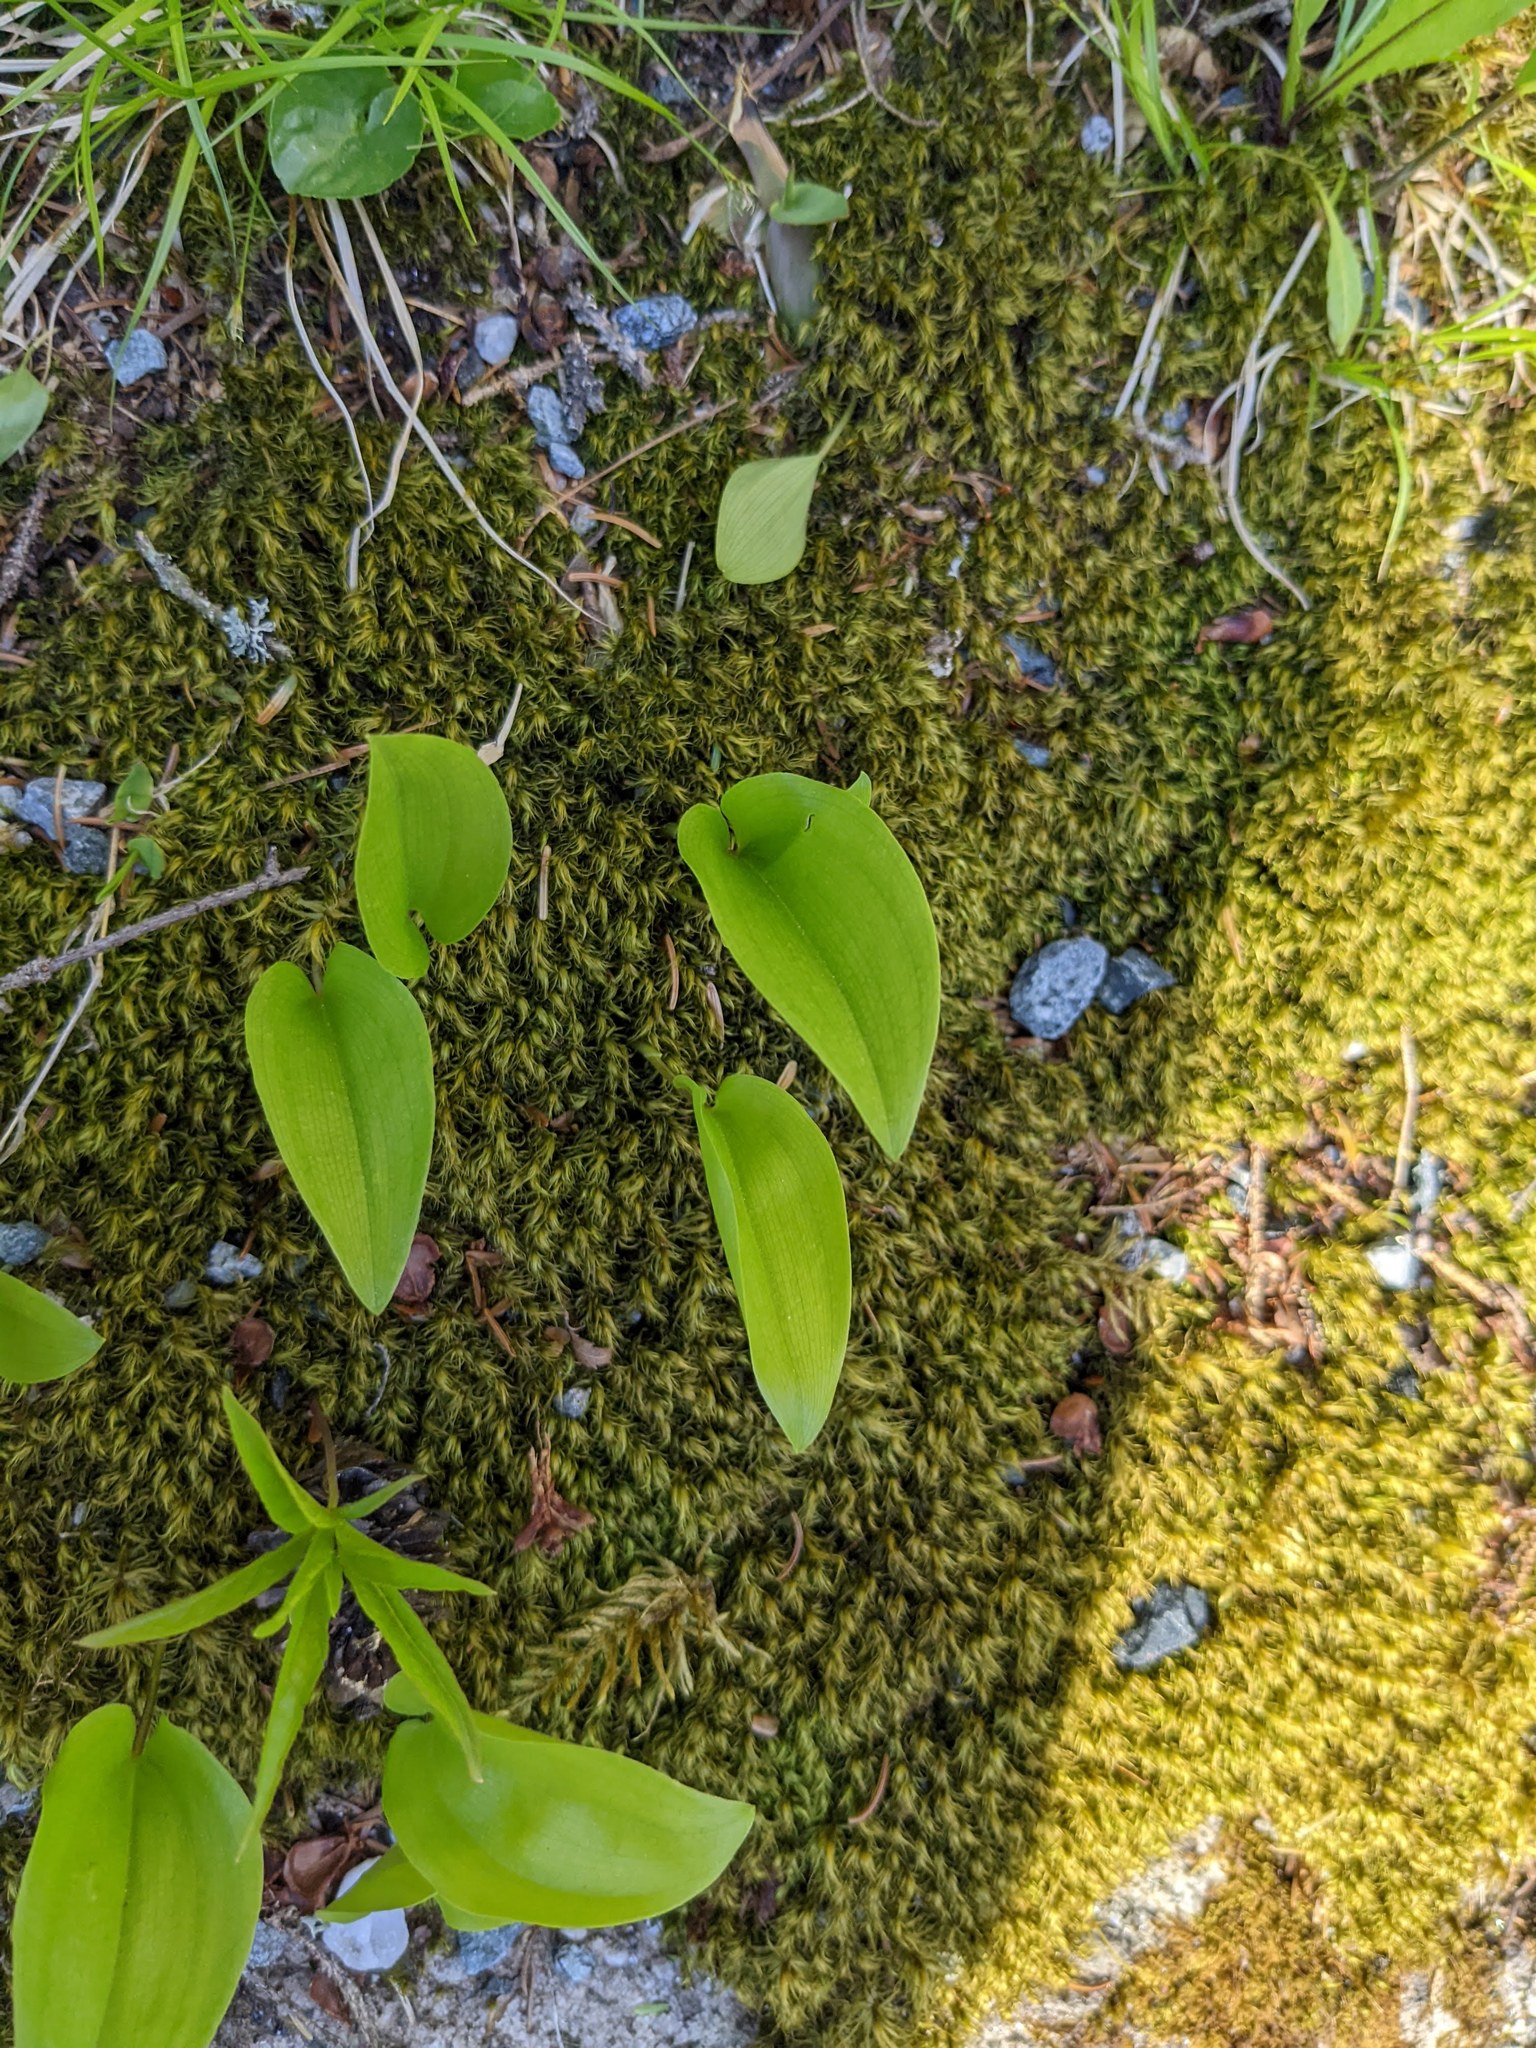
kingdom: Plantae
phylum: Tracheophyta
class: Liliopsida
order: Asparagales
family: Asparagaceae
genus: Maianthemum
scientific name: Maianthemum canadense
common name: False lily-of-the-valley
